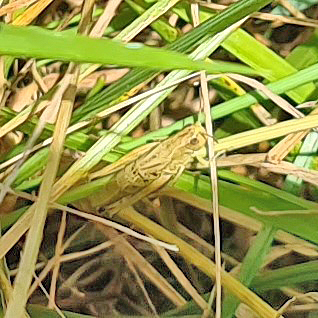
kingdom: Animalia
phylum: Arthropoda
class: Insecta
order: Orthoptera
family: Acrididae
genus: Pseudochorthippus
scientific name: Pseudochorthippus parallelus
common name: Meadow grasshopper
